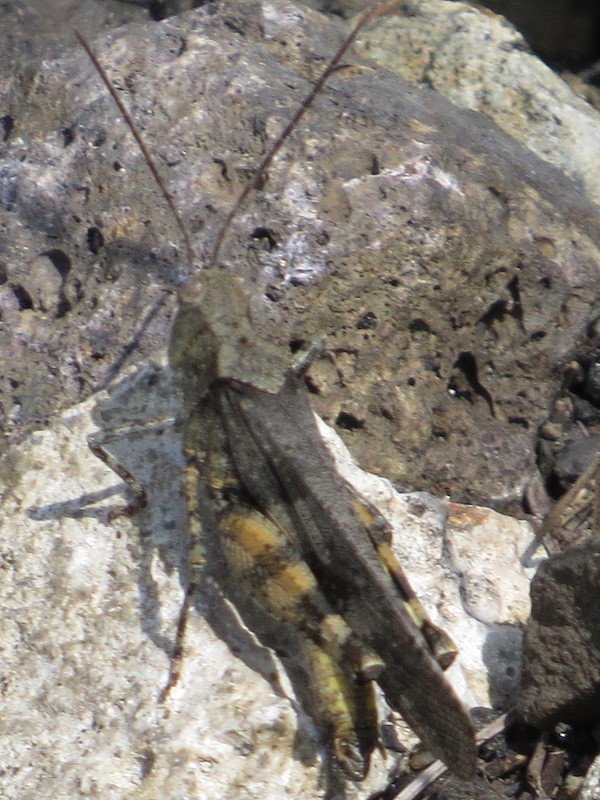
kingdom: Animalia
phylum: Arthropoda
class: Insecta
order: Orthoptera
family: Acrididae
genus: Spharagemon
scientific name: Spharagemon saxatile
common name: Ledge grasshopper
